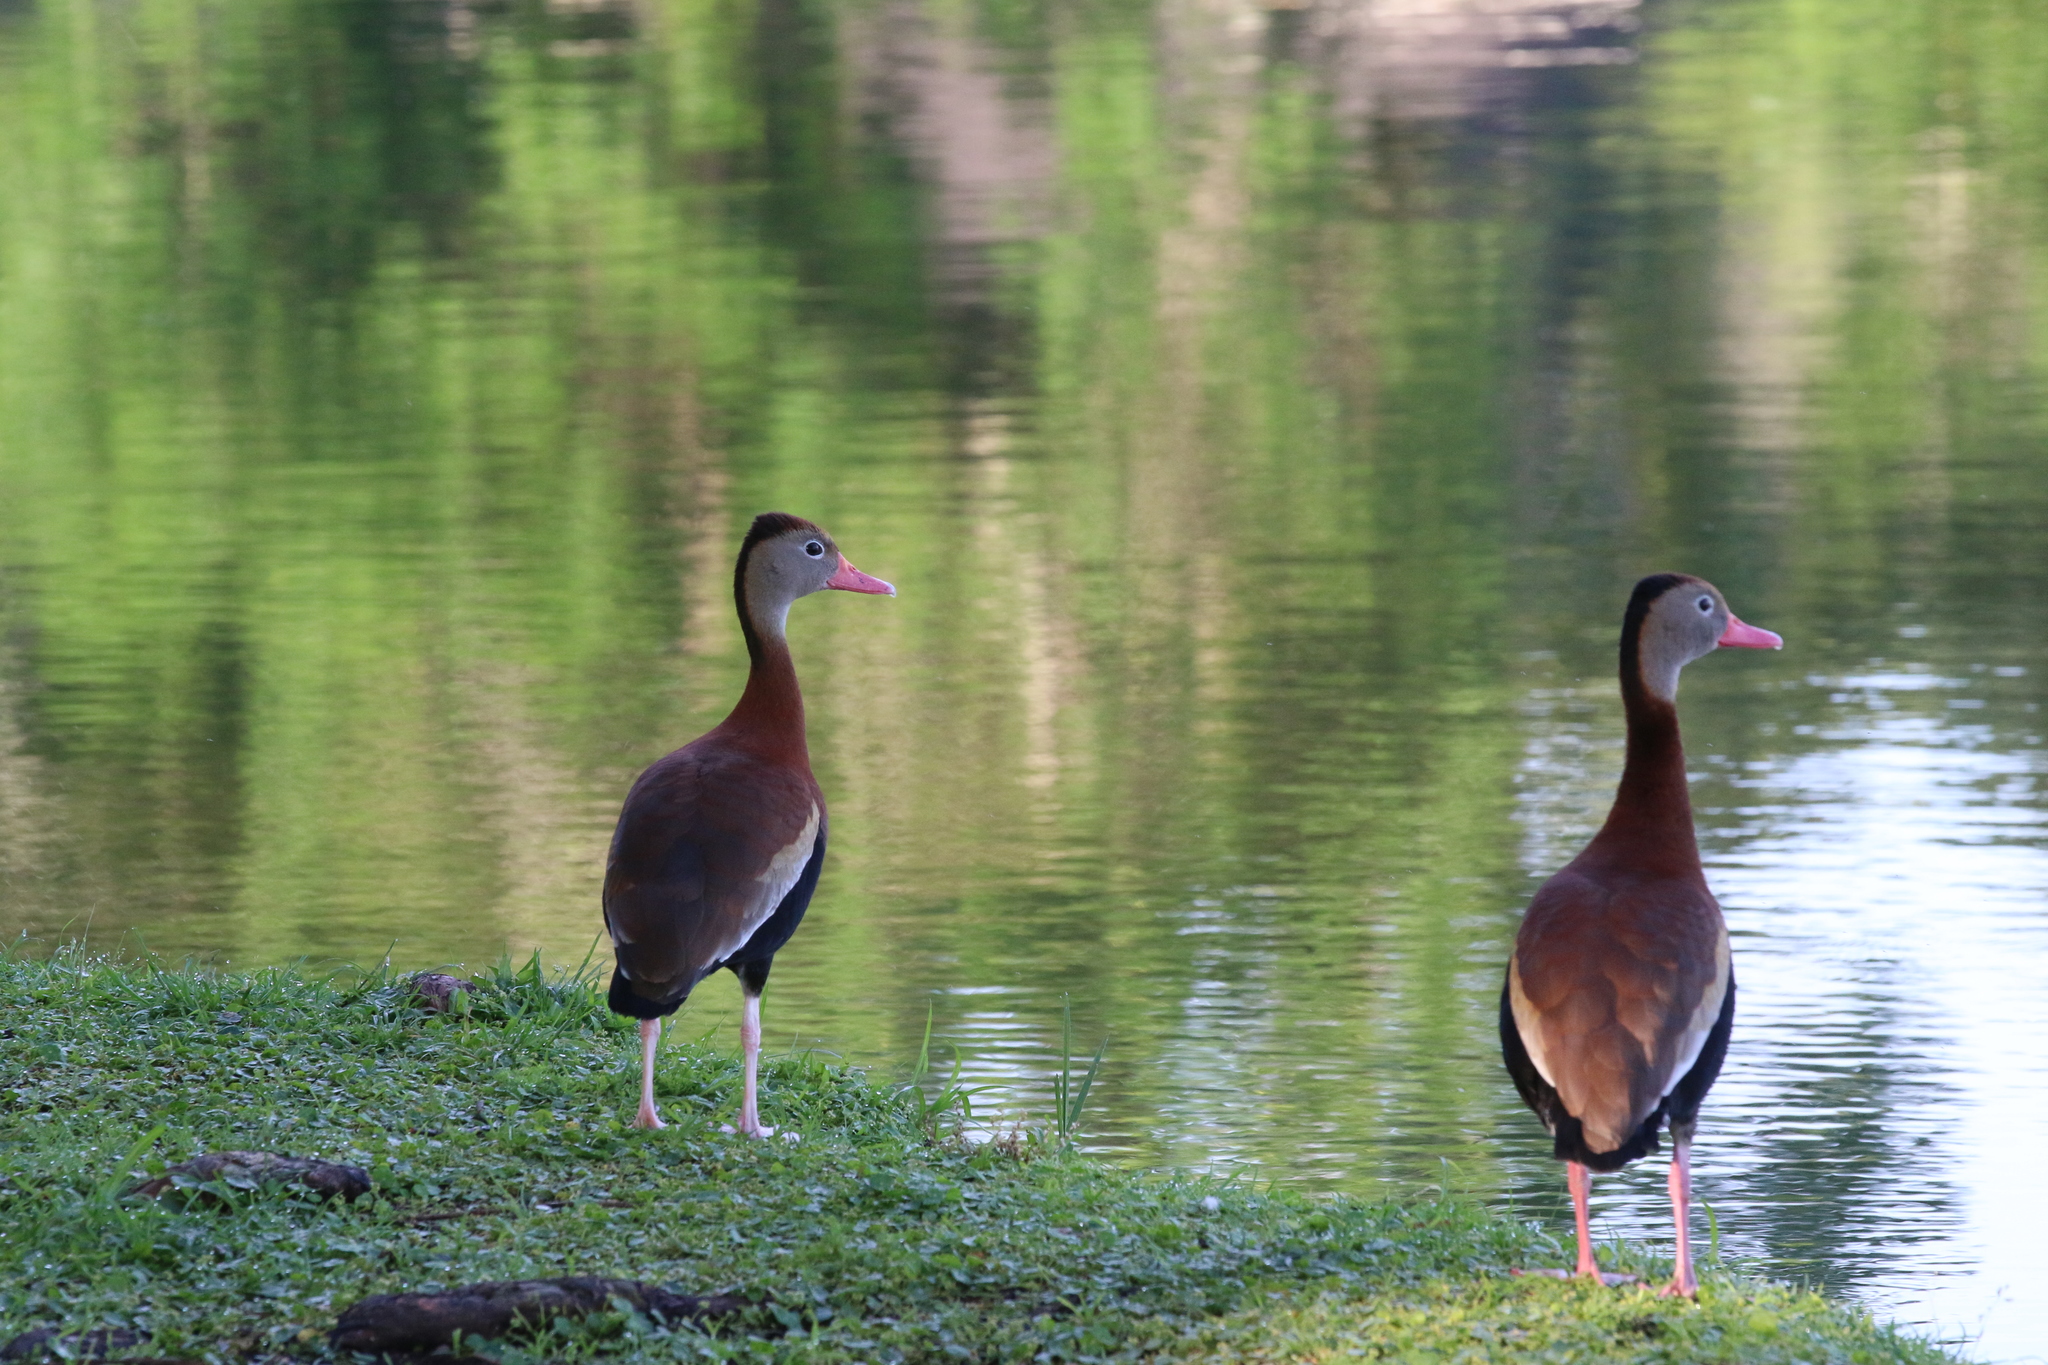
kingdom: Animalia
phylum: Chordata
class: Aves
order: Anseriformes
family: Anatidae
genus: Dendrocygna
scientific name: Dendrocygna autumnalis
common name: Black-bellied whistling duck
